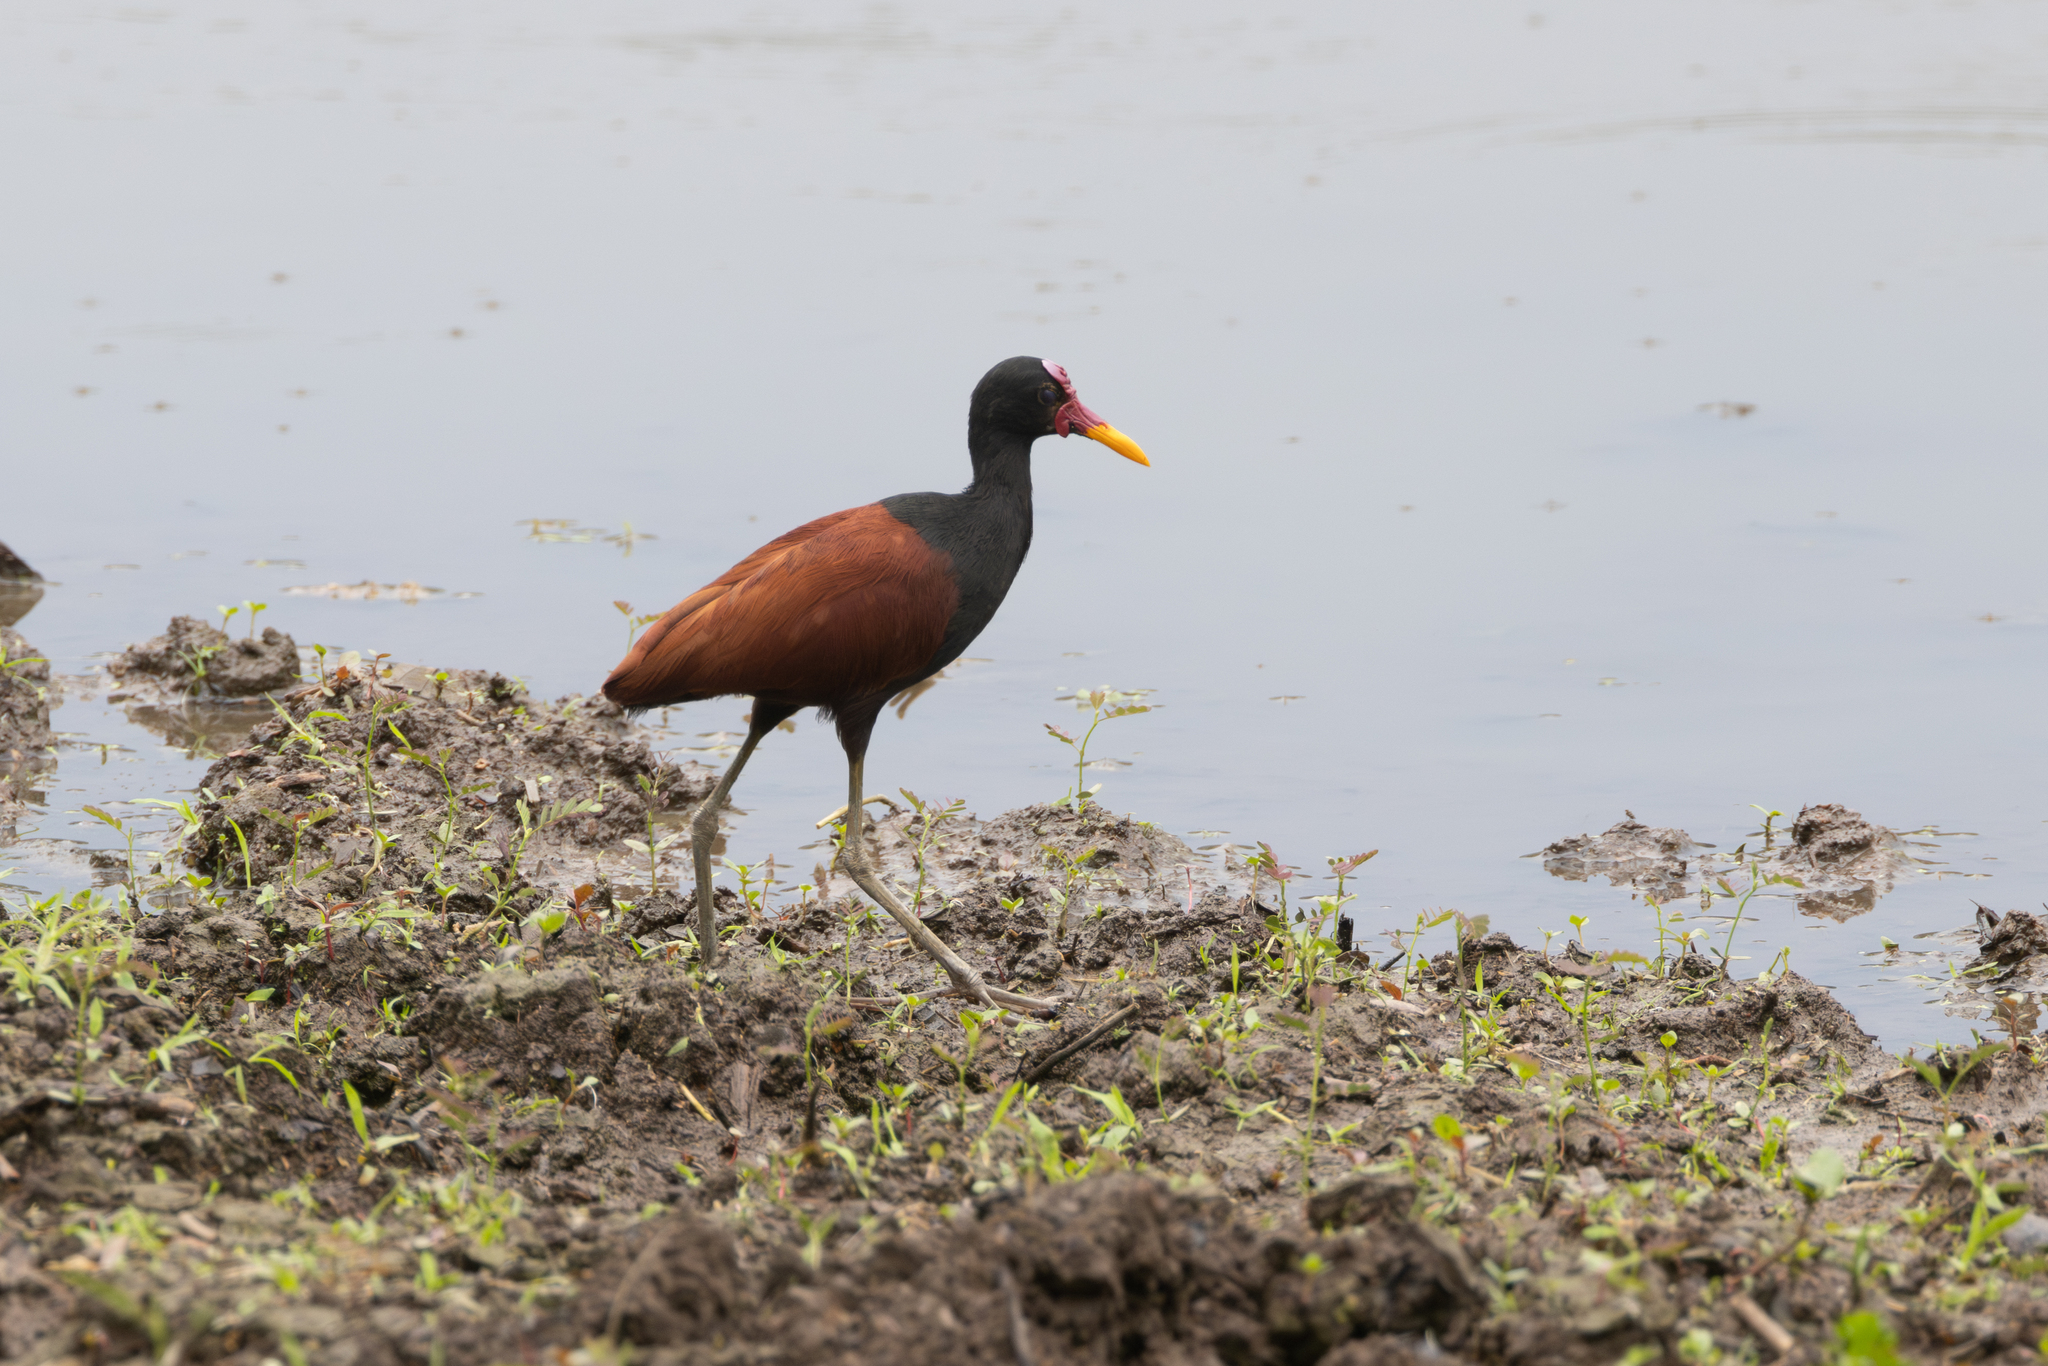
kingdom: Animalia
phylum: Chordata
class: Aves
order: Charadriiformes
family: Jacanidae
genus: Jacana
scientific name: Jacana jacana
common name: Wattled jacana
